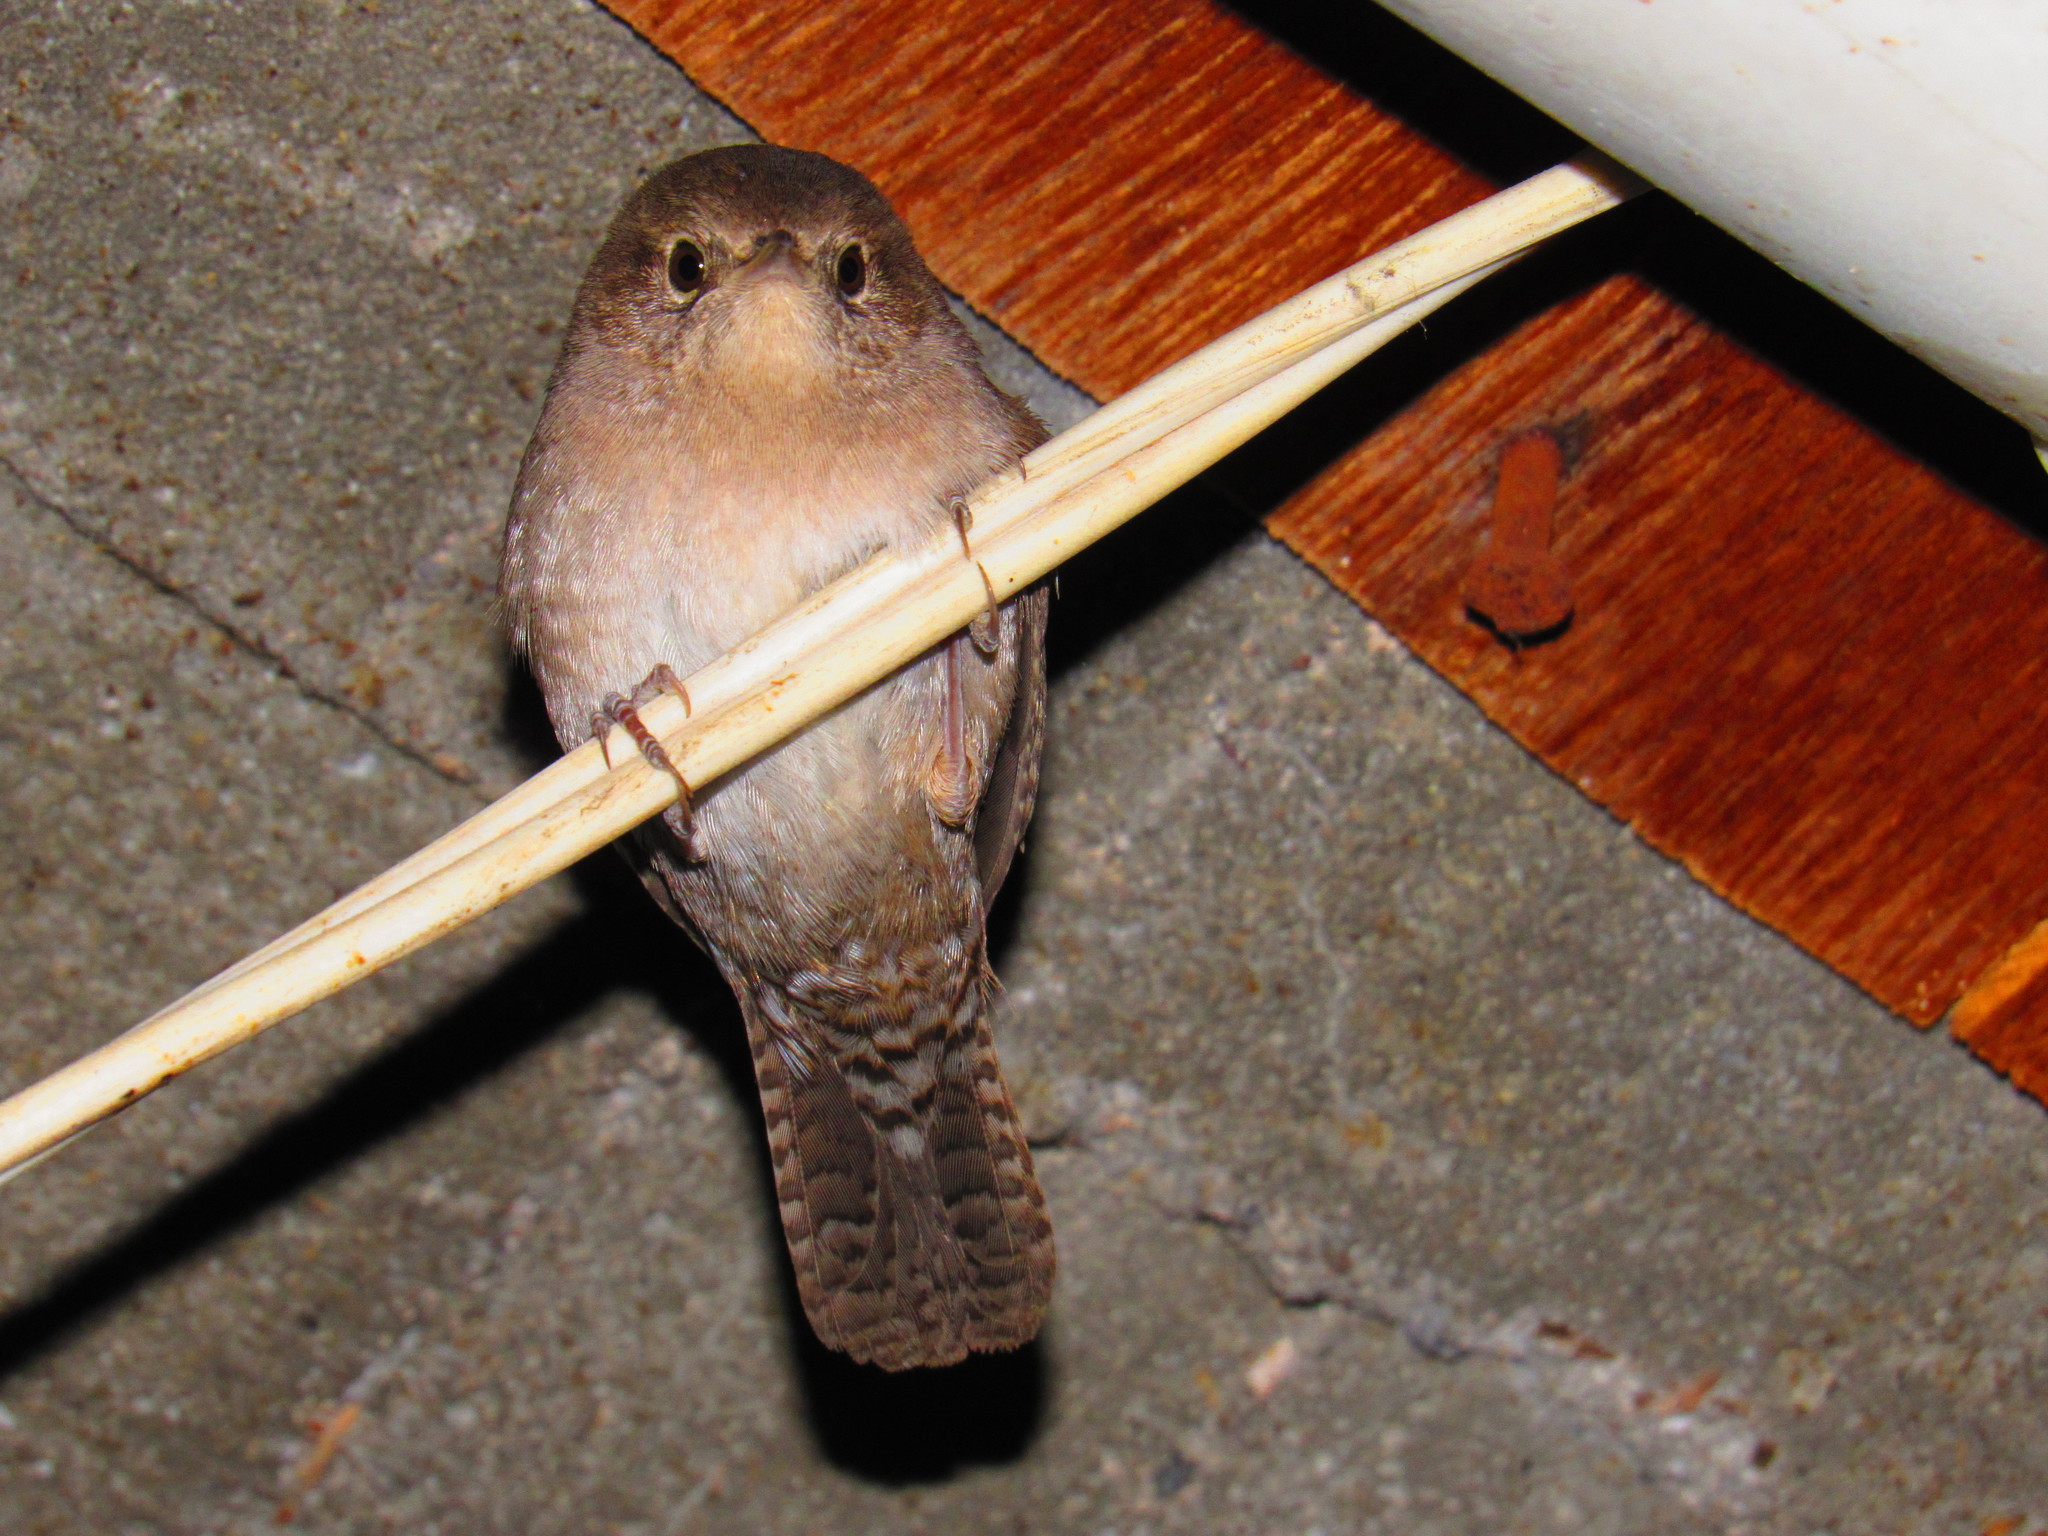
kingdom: Animalia
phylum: Chordata
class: Aves
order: Passeriformes
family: Troglodytidae
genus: Troglodytes
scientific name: Troglodytes aedon
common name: House wren
